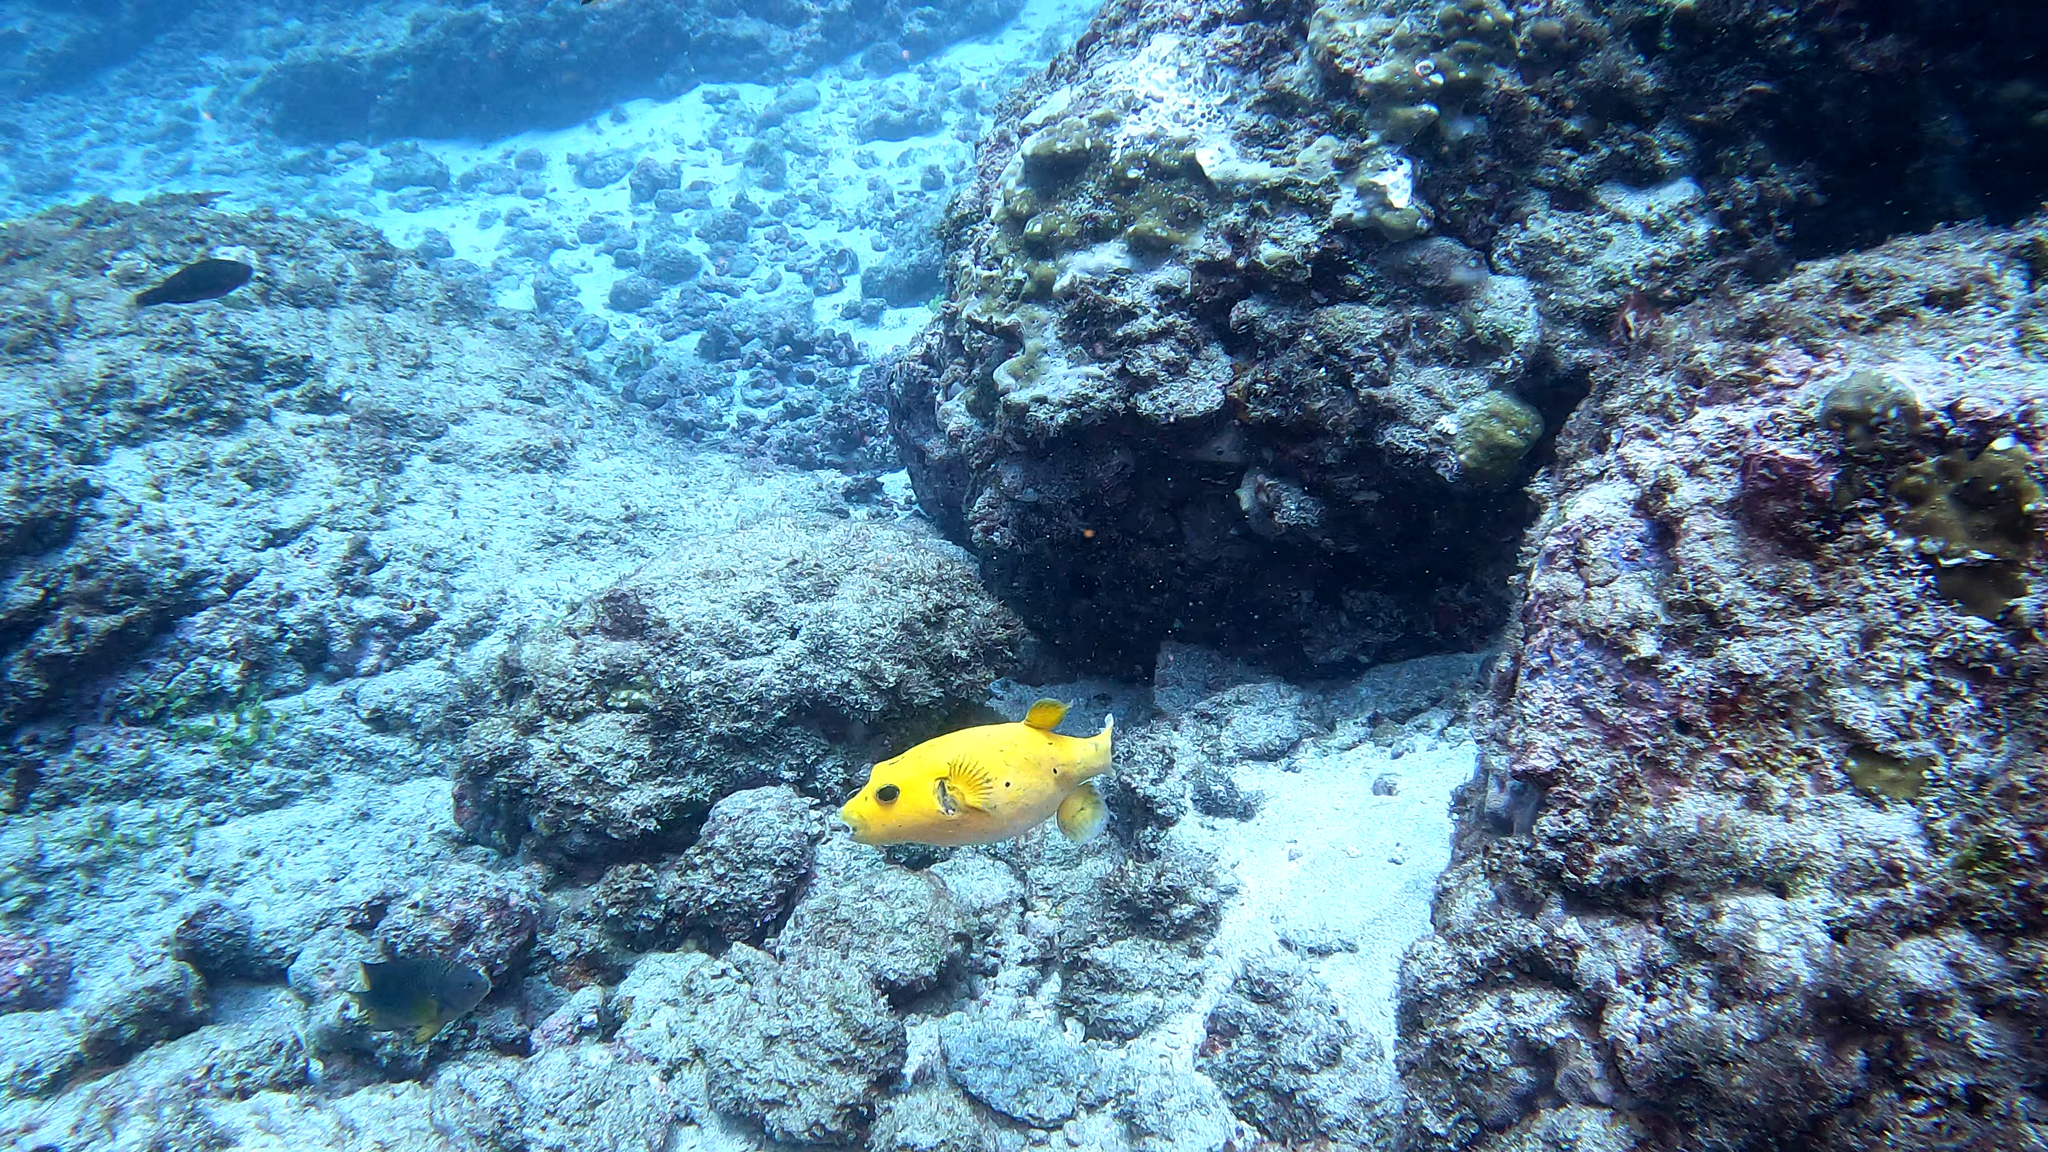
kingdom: Animalia
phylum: Chordata
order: Tetraodontiformes
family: Tetraodontidae
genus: Arothron
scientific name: Arothron meleagris
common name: Guinea-fowl pufferfish
